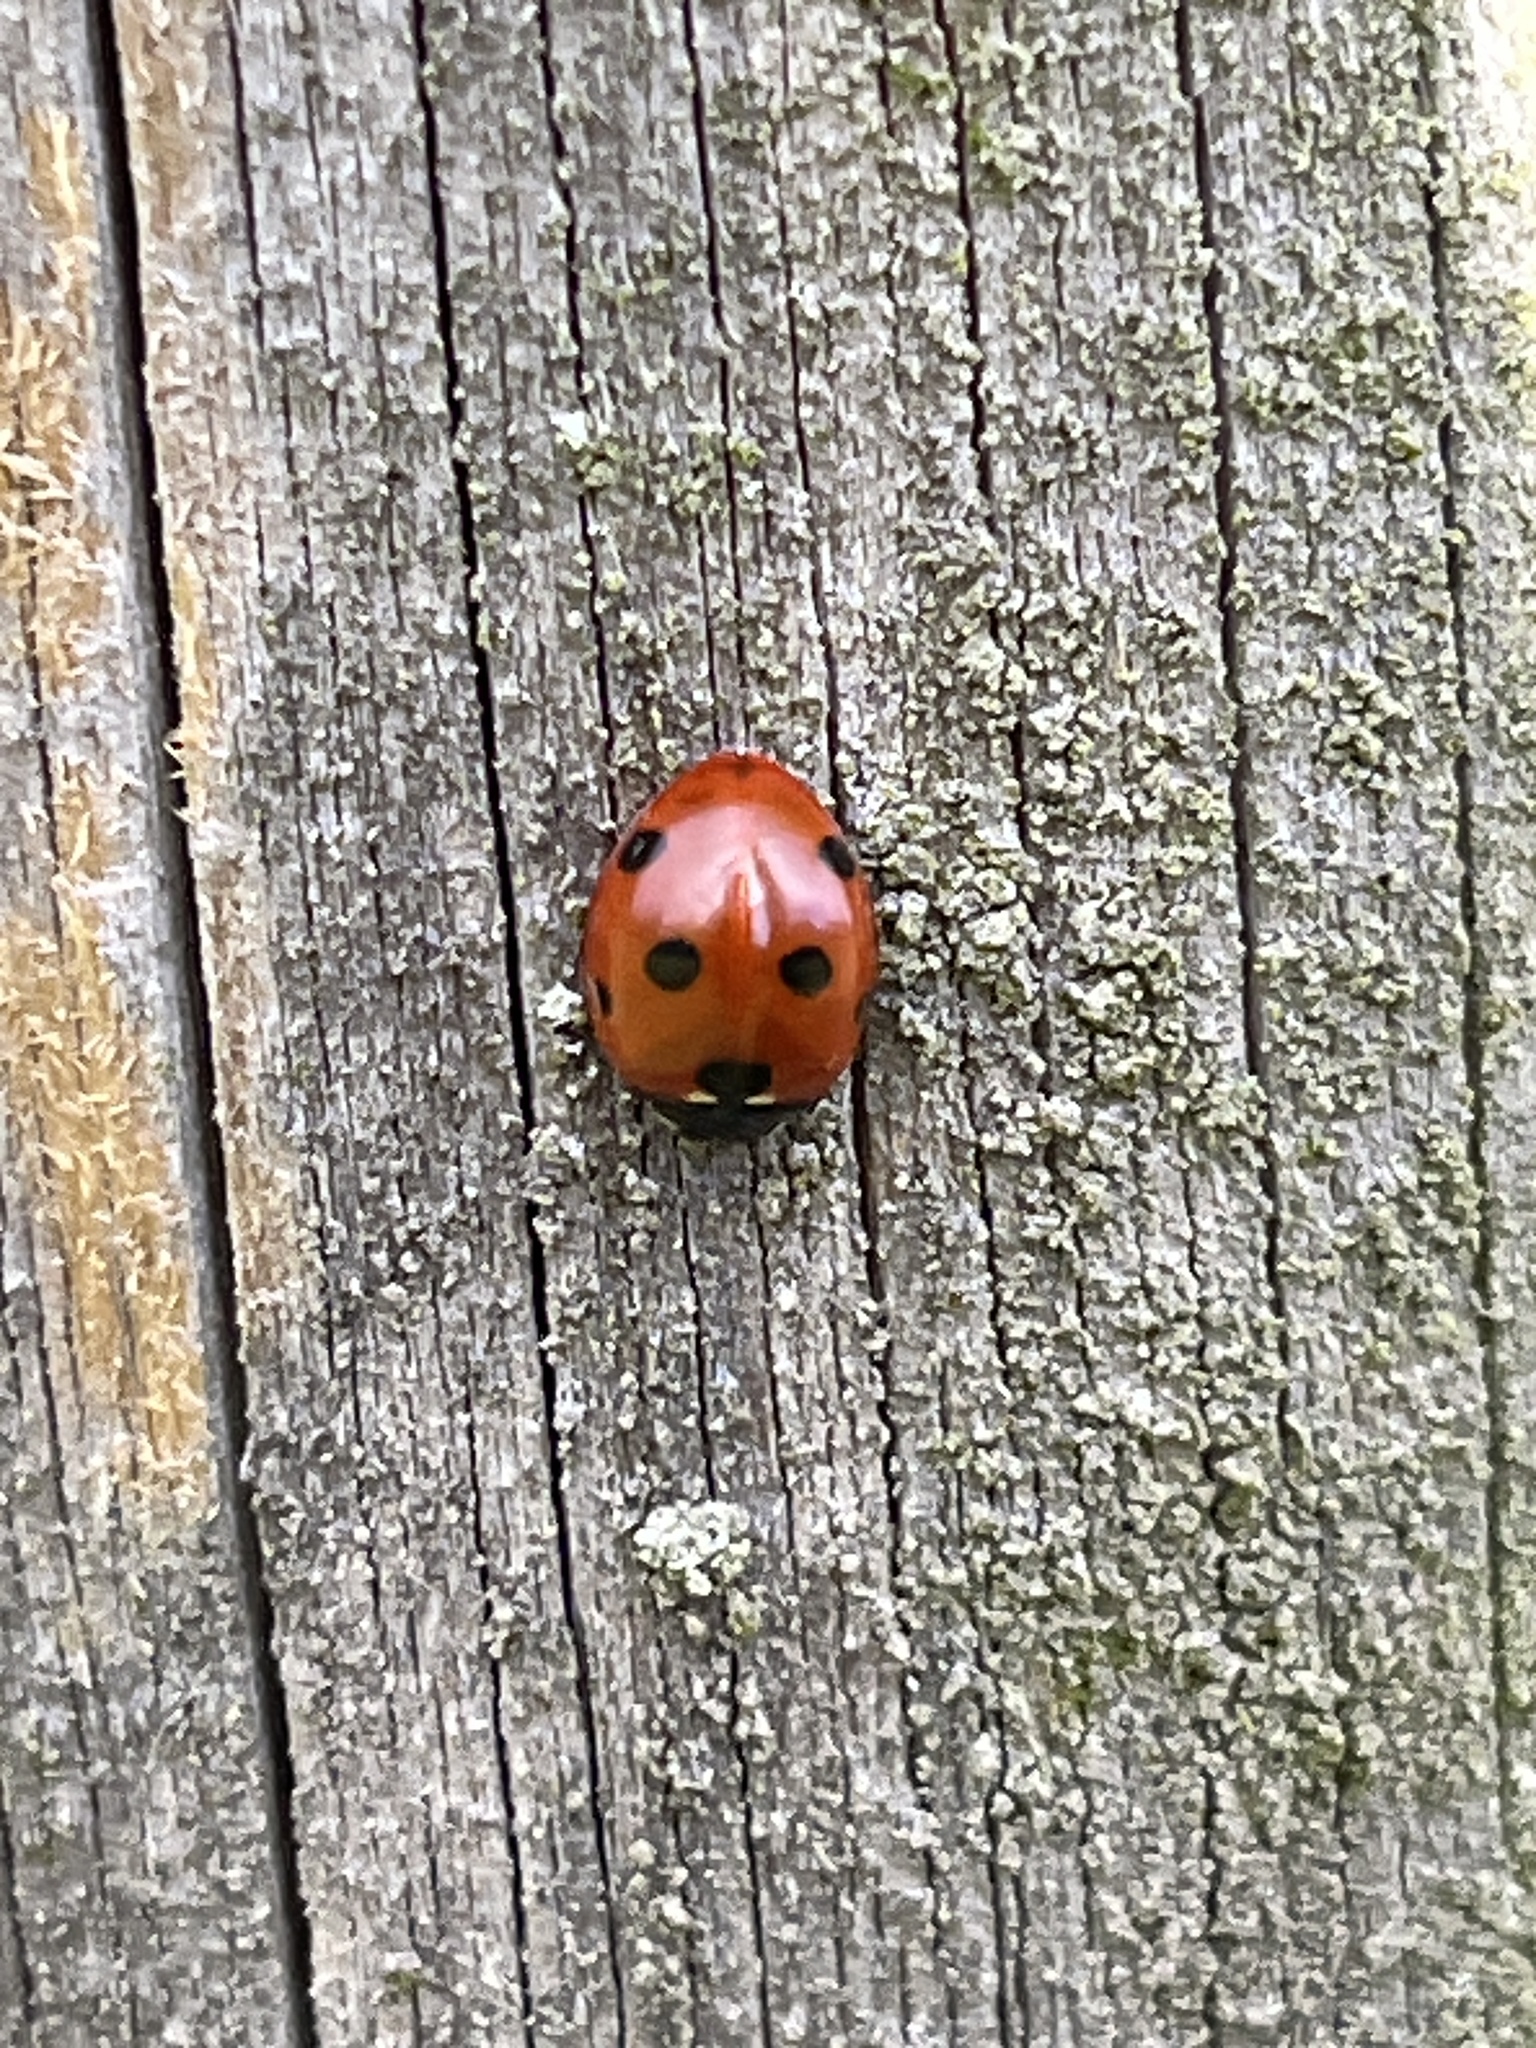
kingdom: Animalia
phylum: Arthropoda
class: Insecta
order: Coleoptera
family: Coccinellidae
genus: Coccinella
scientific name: Coccinella septempunctata
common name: Sevenspotted lady beetle
